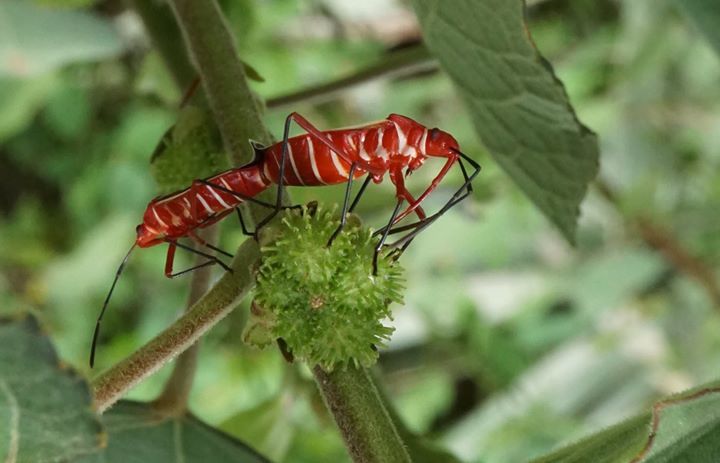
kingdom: Animalia
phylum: Arthropoda
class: Insecta
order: Hemiptera
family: Pyrrhocoridae
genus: Dysdercus
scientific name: Dysdercus suturellus
